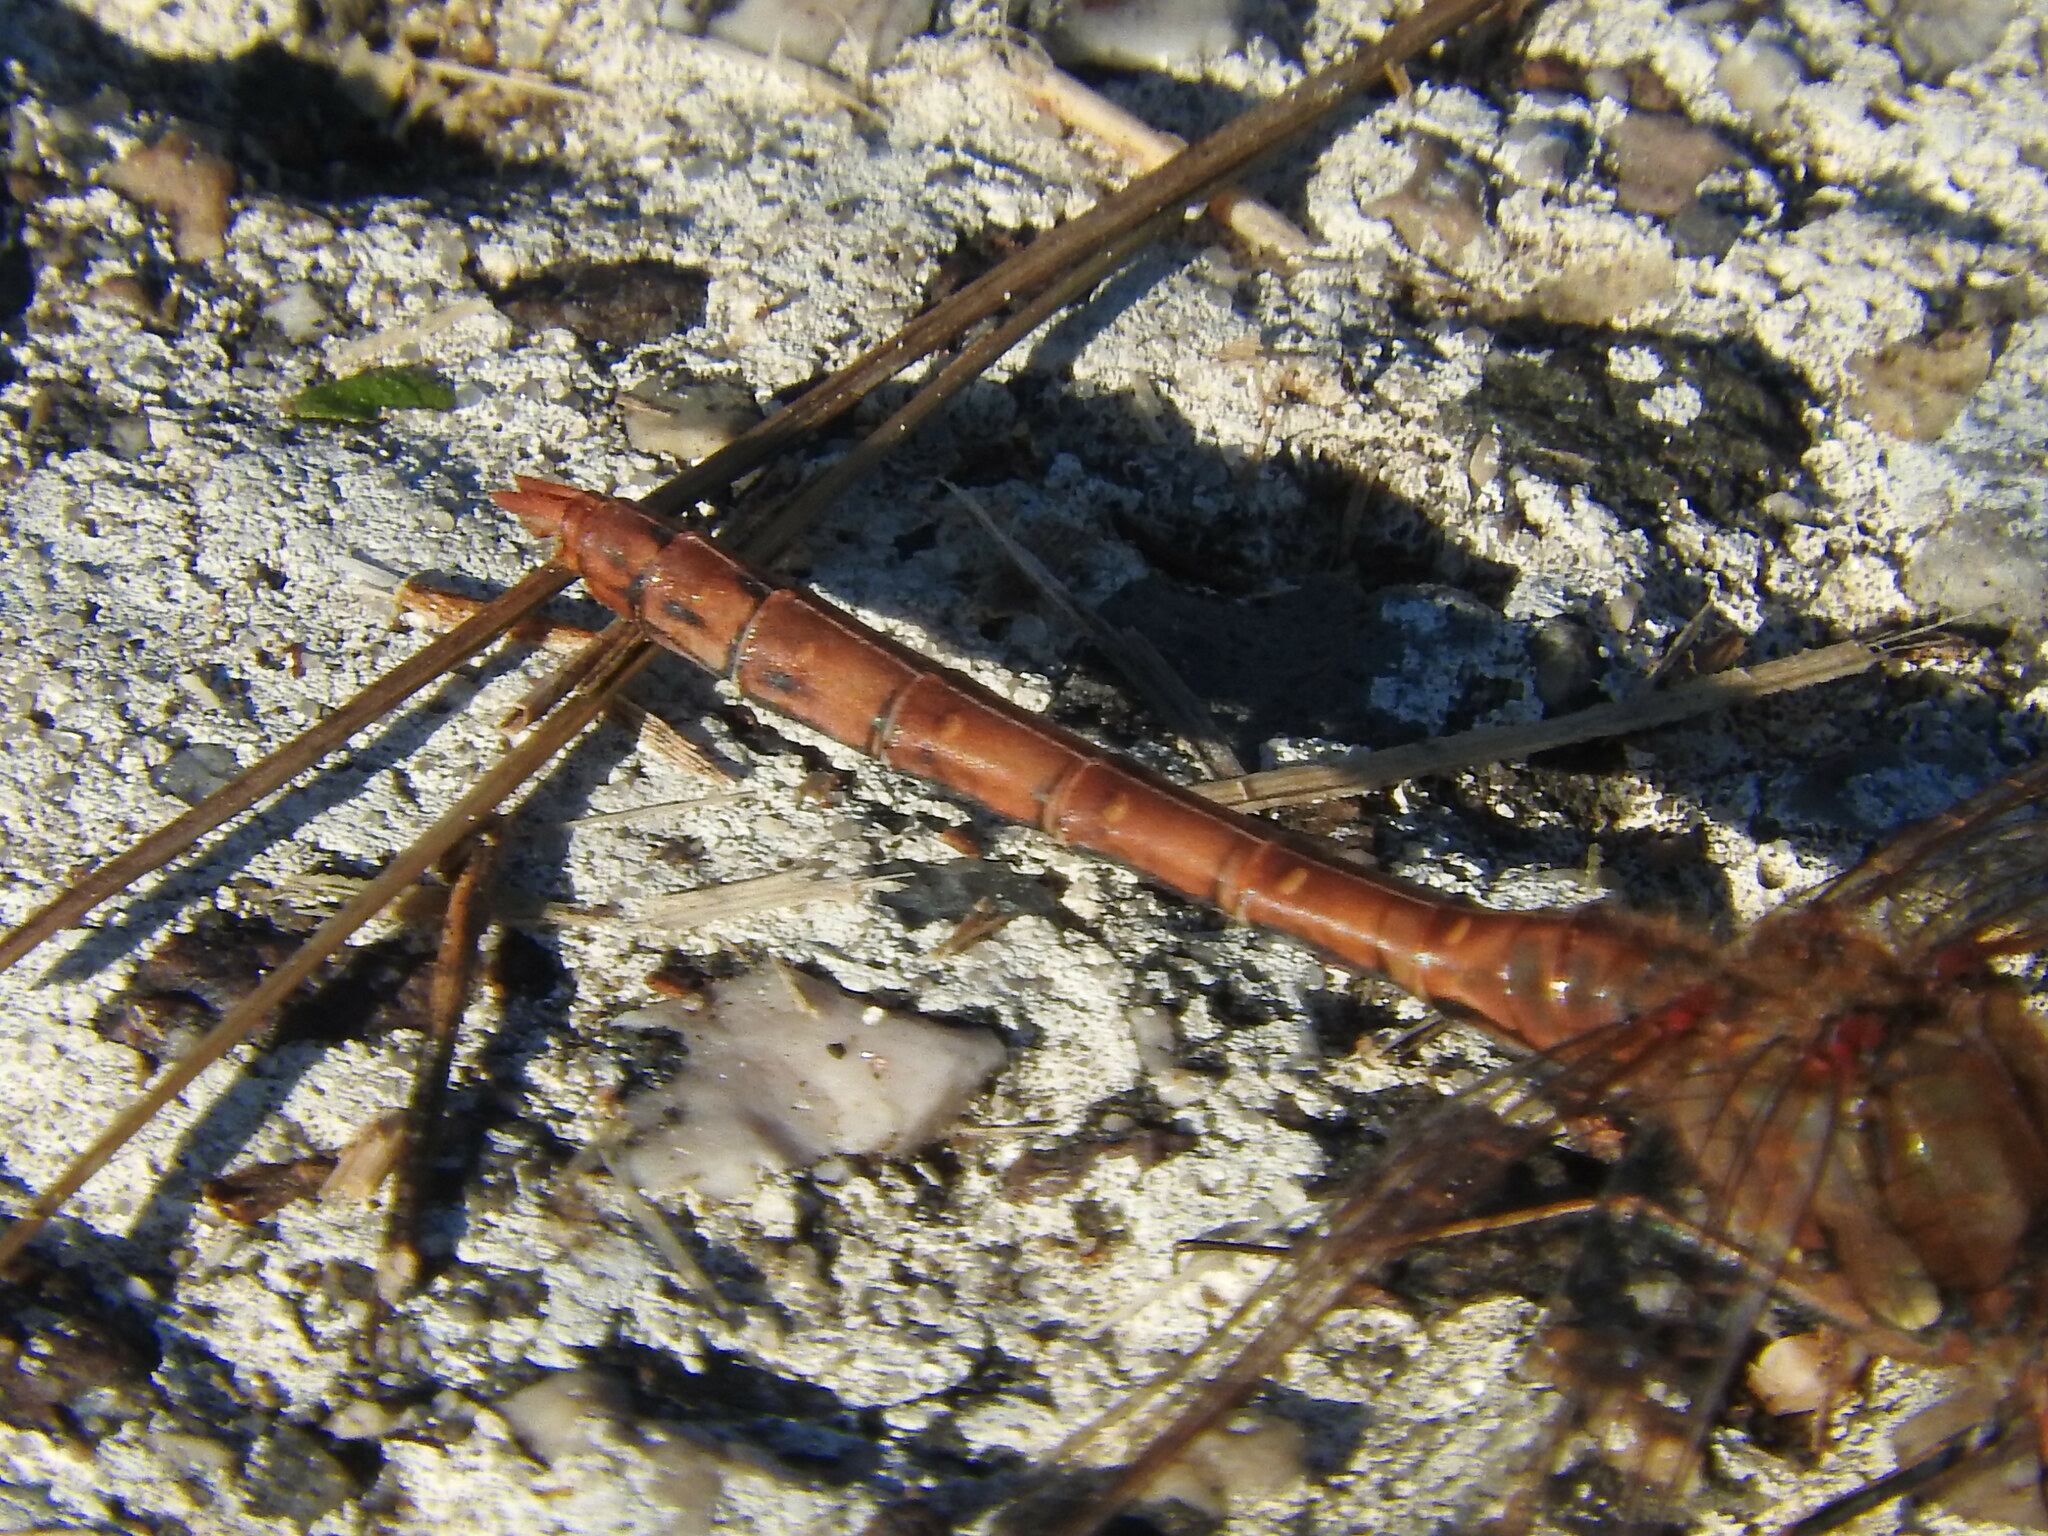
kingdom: Animalia
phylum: Arthropoda
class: Insecta
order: Odonata
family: Libellulidae
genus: Sympetrum
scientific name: Sympetrum striolatum
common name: Common darter
